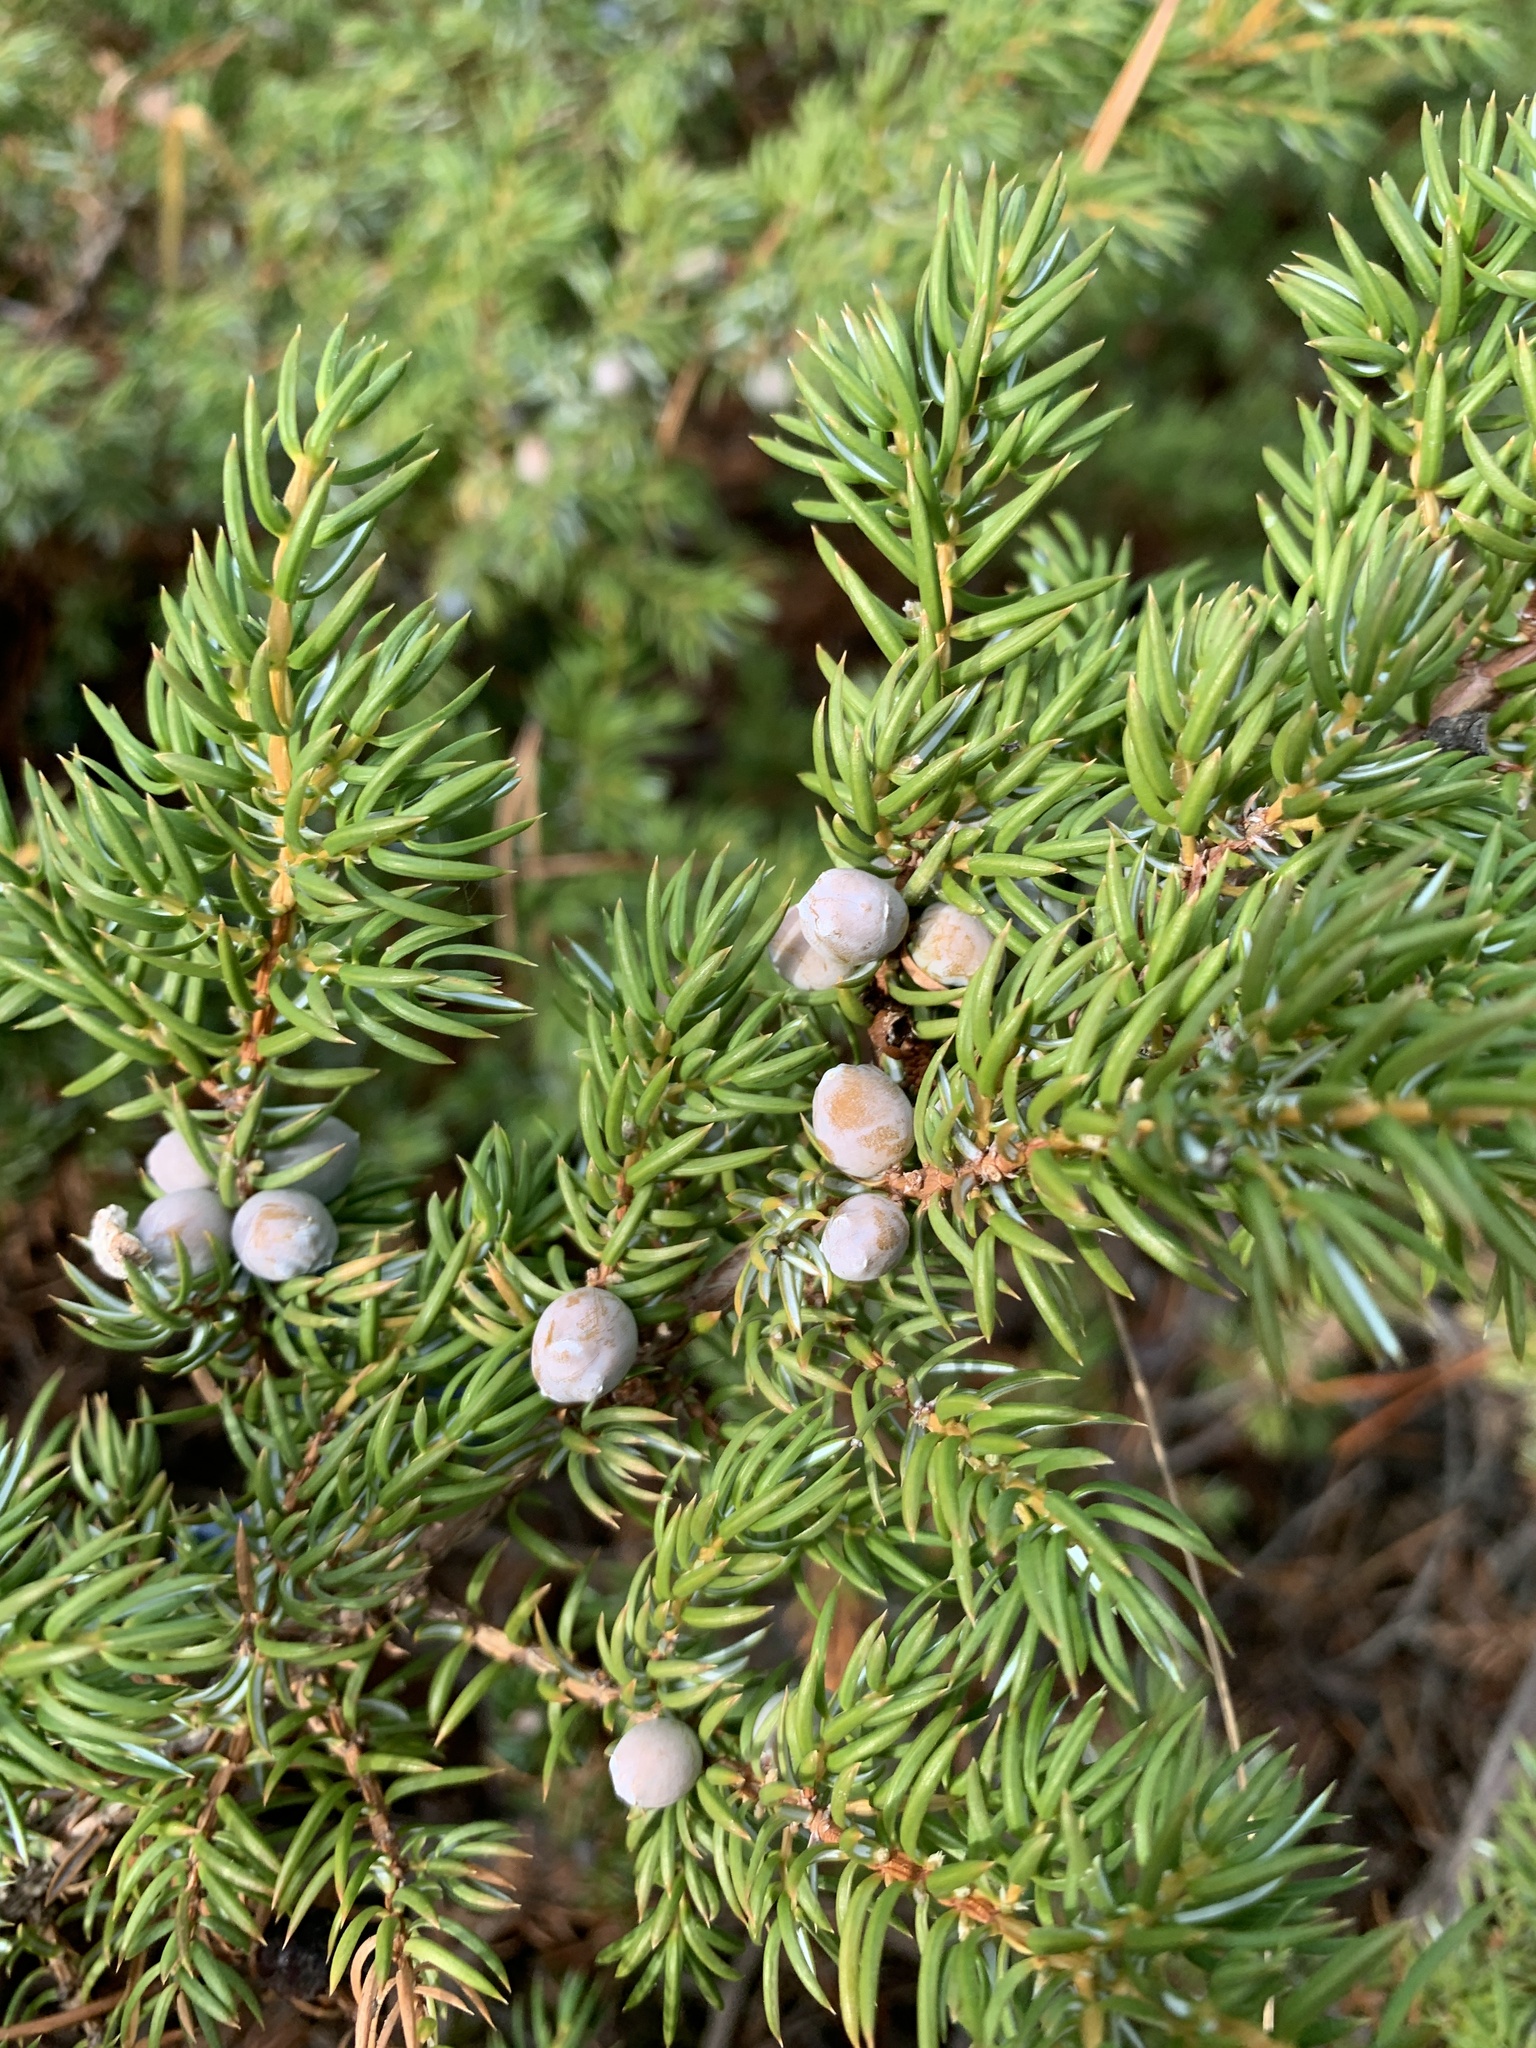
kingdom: Plantae
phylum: Tracheophyta
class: Pinopsida
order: Pinales
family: Cupressaceae
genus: Juniperus
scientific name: Juniperus communis
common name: Common juniper
